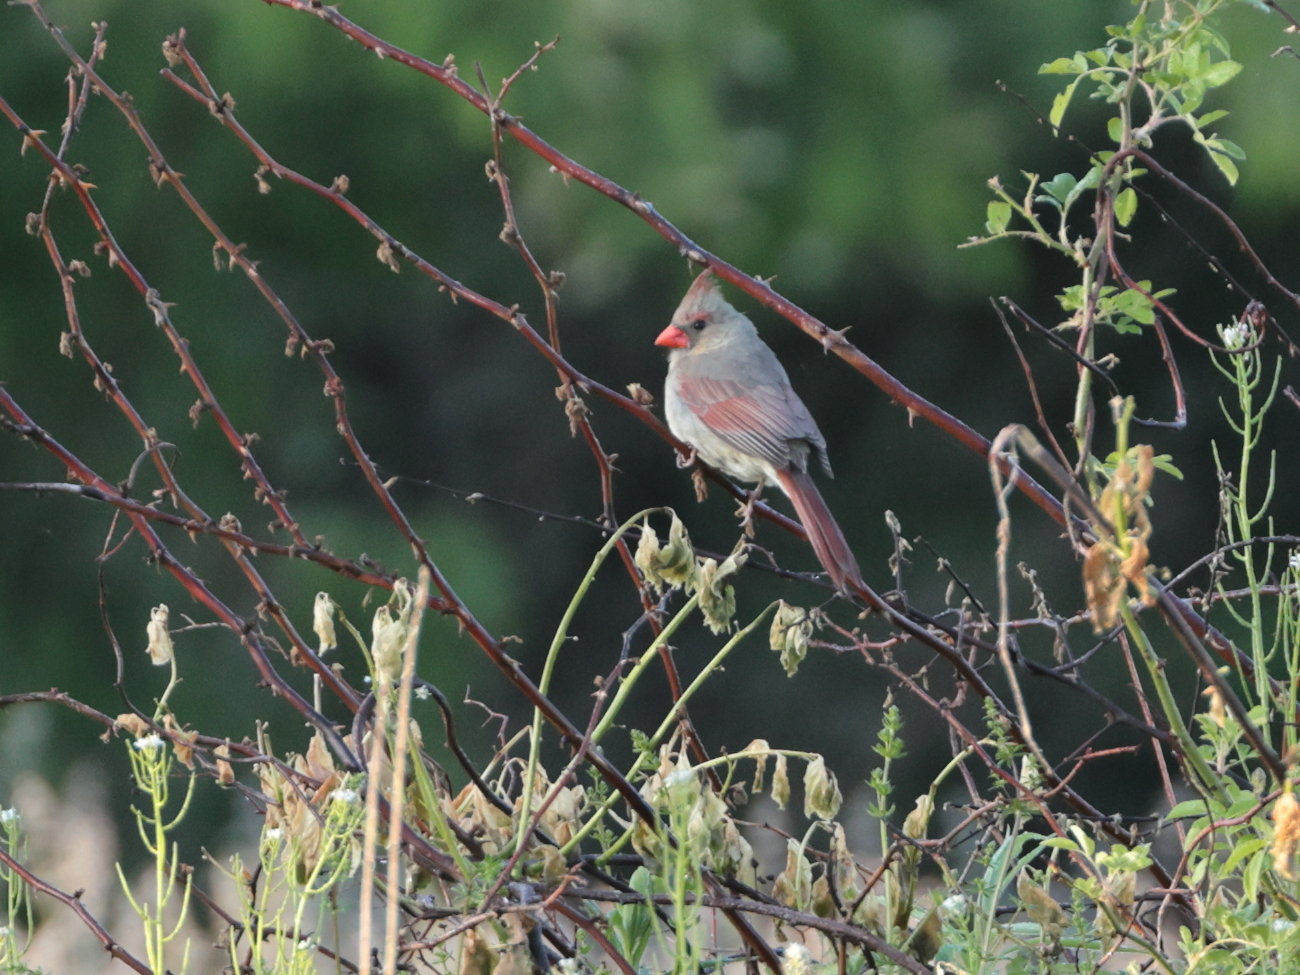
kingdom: Animalia
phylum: Chordata
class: Aves
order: Passeriformes
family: Cardinalidae
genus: Cardinalis
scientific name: Cardinalis cardinalis
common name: Northern cardinal
